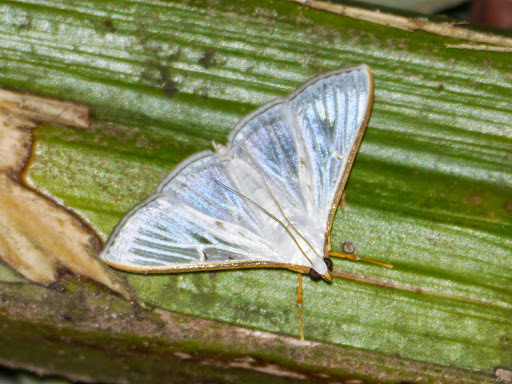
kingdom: Animalia
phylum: Arthropoda
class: Insecta
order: Lepidoptera
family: Crambidae
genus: Stemorrhages
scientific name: Stemorrhages sericea
